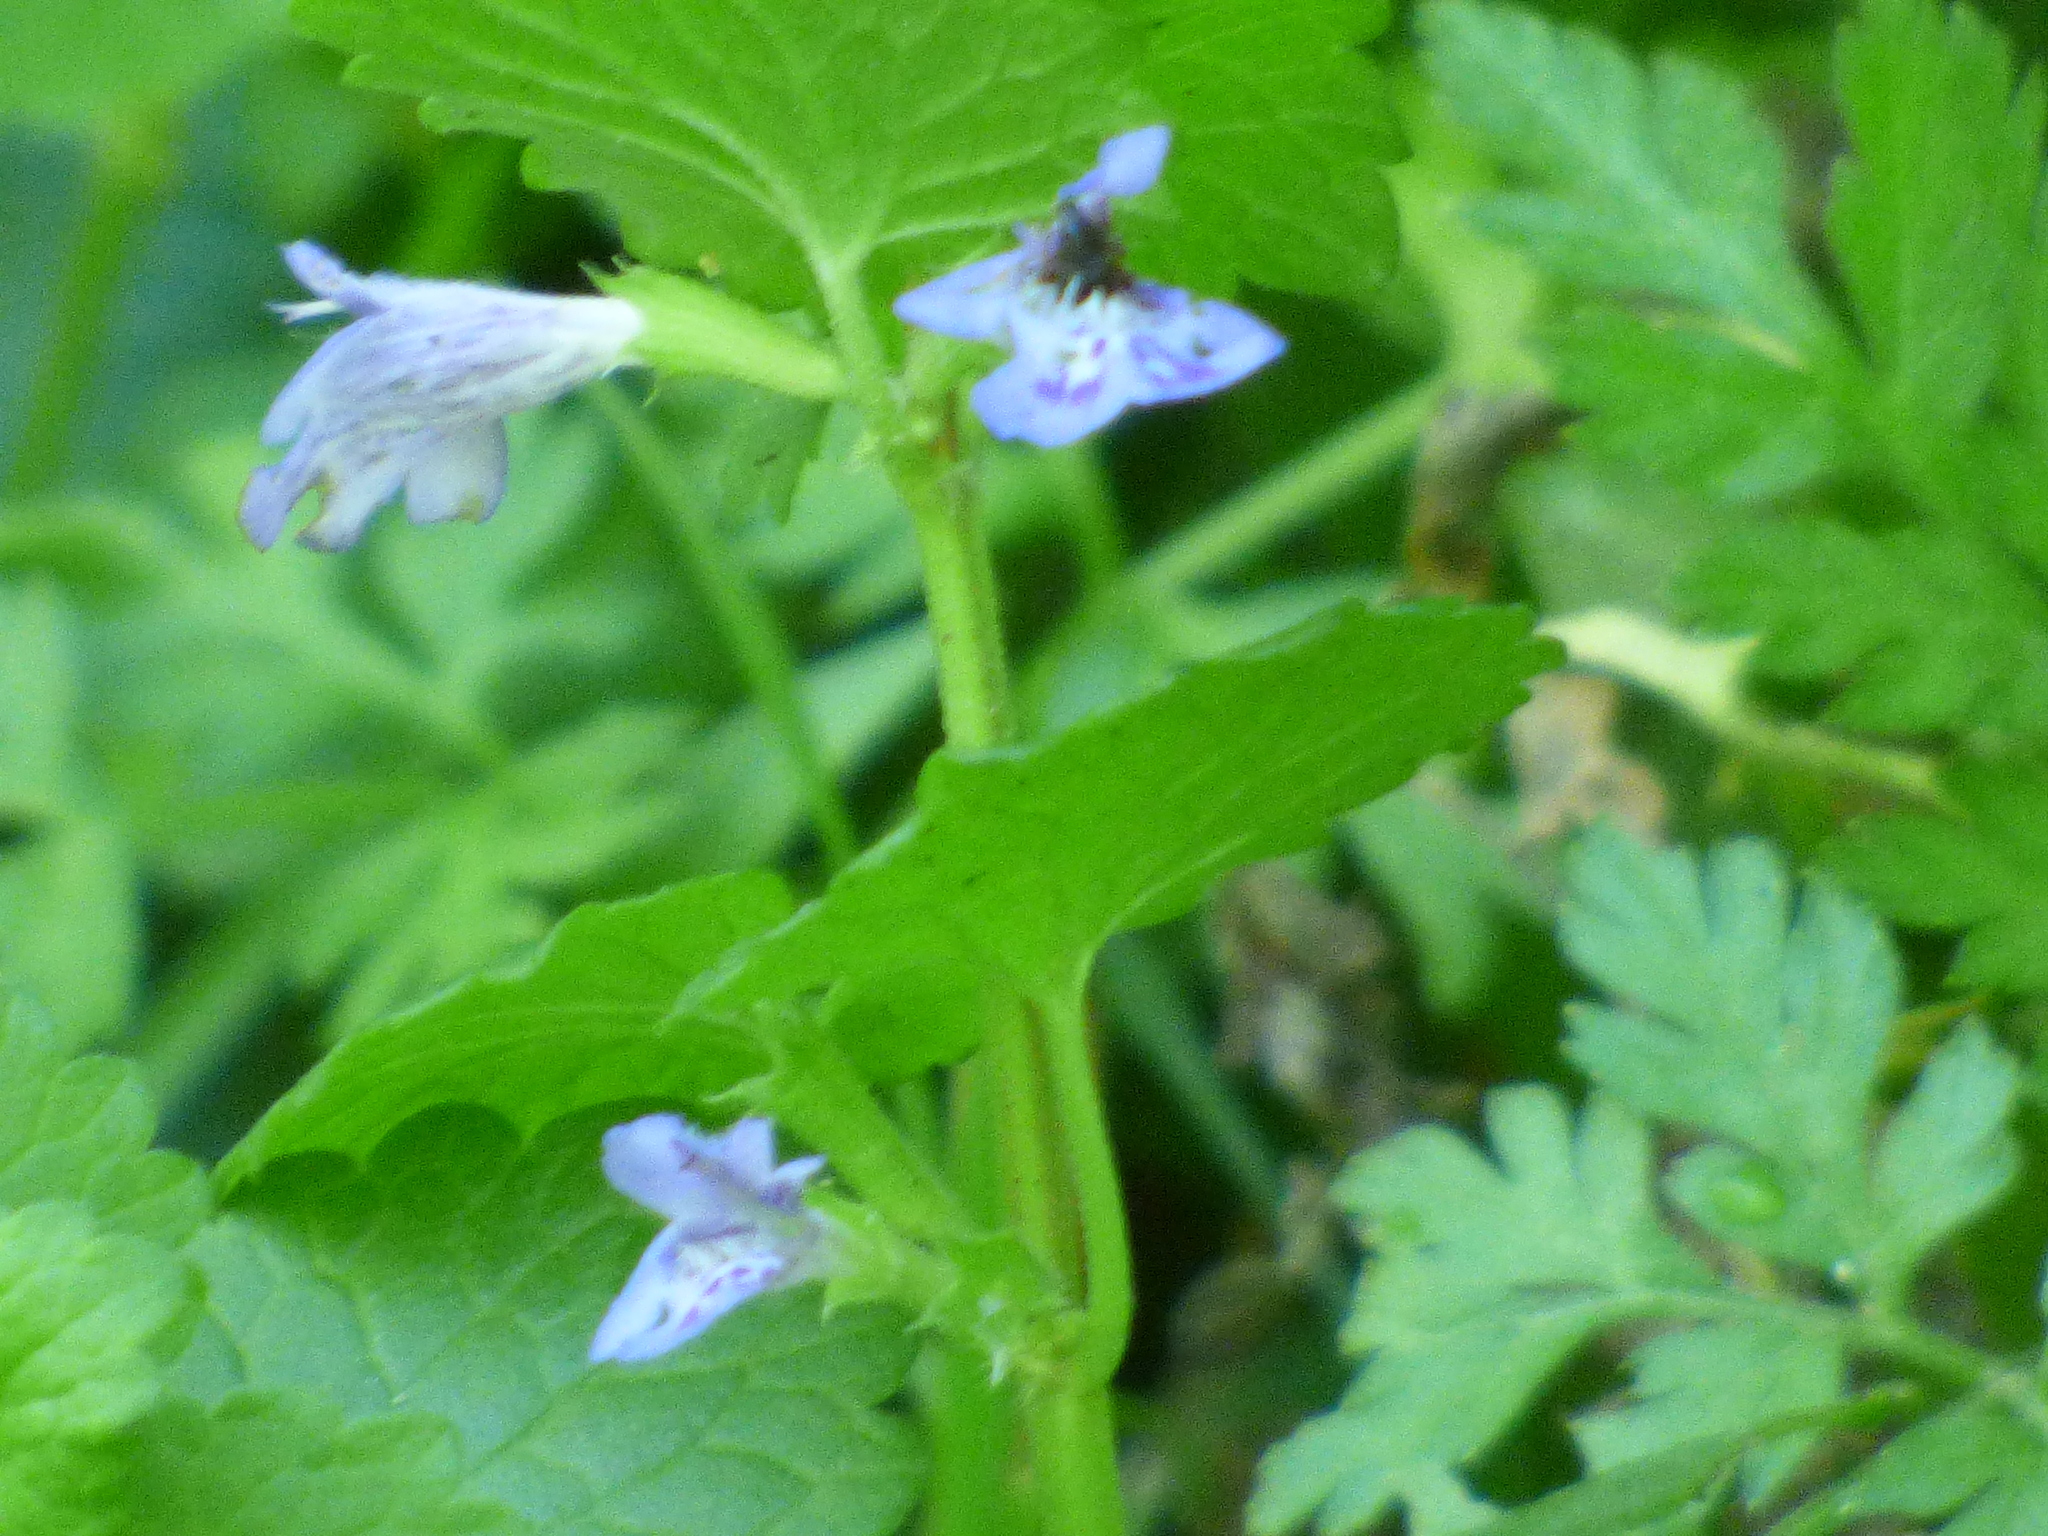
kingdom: Plantae
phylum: Tracheophyta
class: Magnoliopsida
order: Lamiales
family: Lamiaceae
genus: Glechoma
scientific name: Glechoma hederacea
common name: Ground ivy
